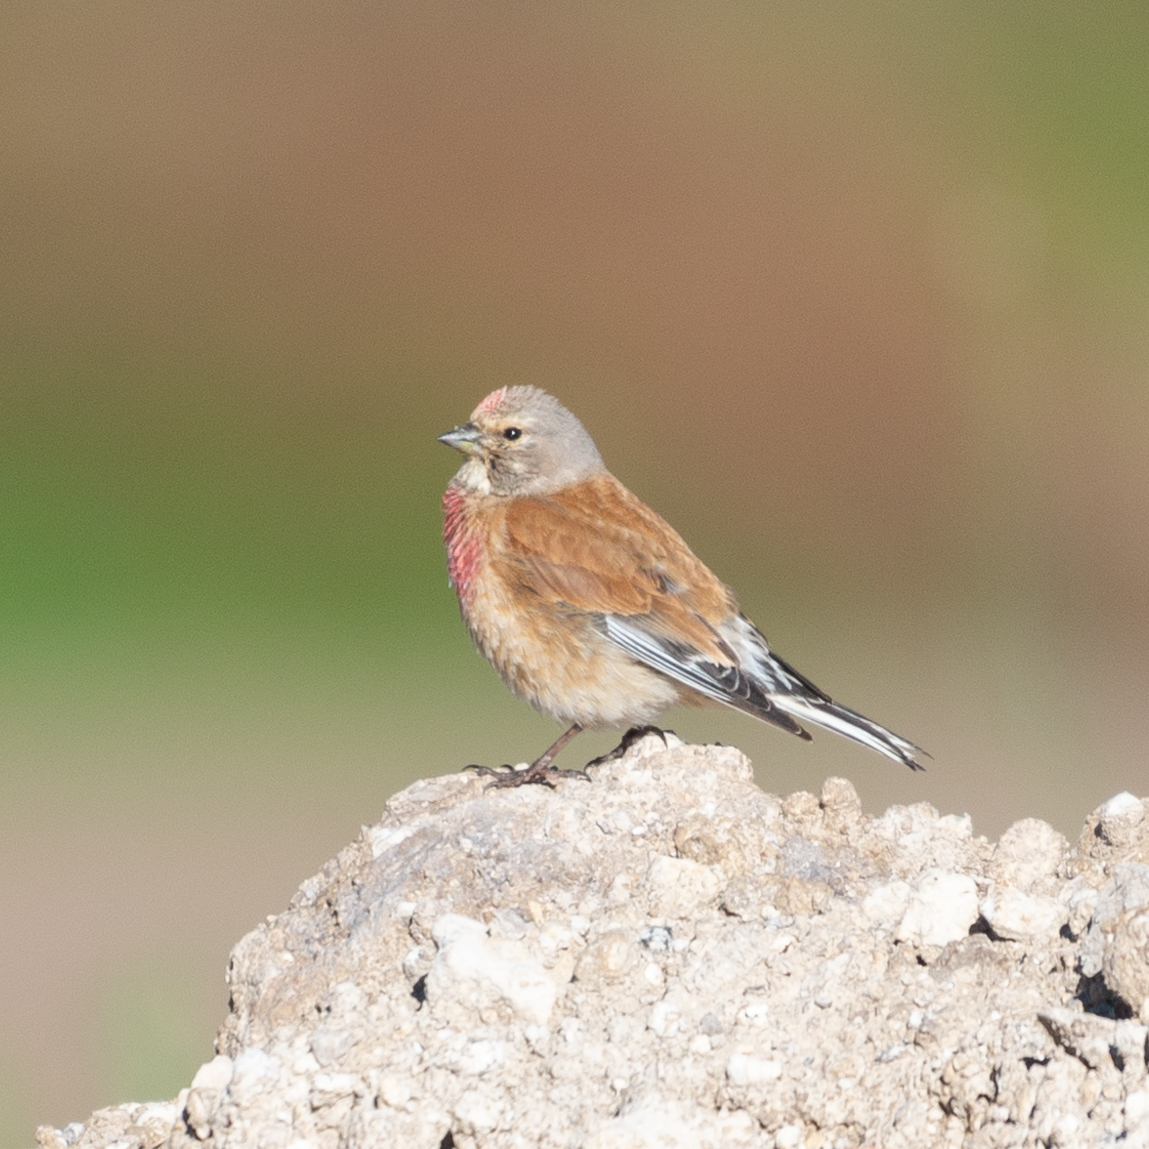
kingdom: Animalia
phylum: Chordata
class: Aves
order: Passeriformes
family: Fringillidae
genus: Linaria
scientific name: Linaria cannabina
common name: Common linnet
